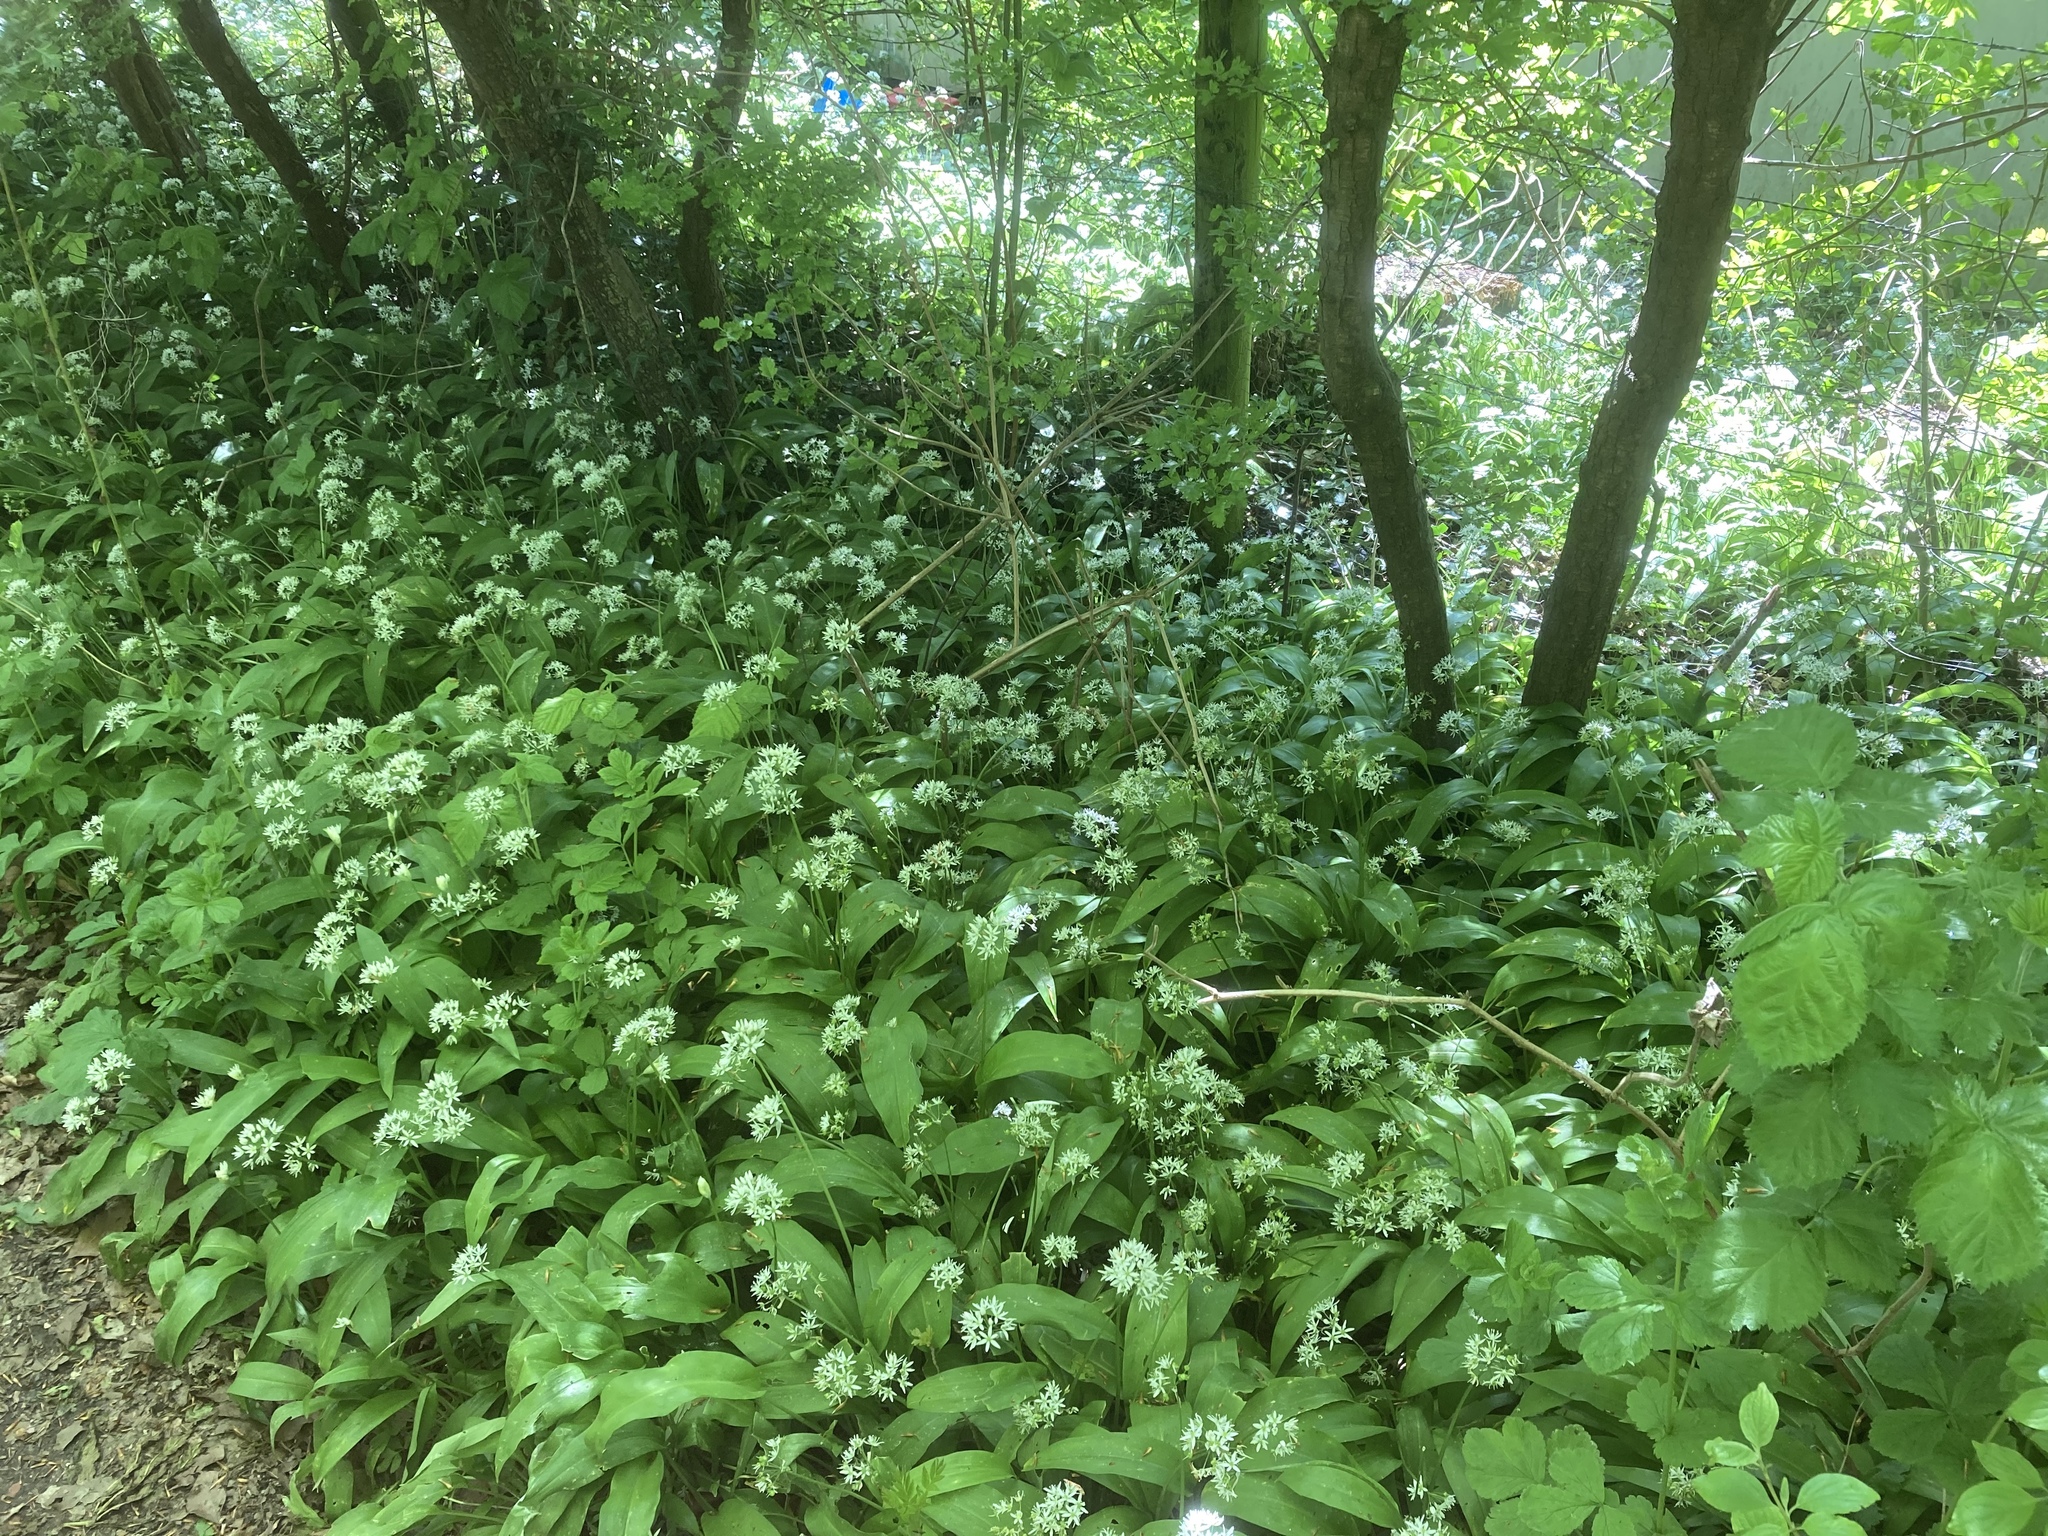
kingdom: Plantae
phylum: Tracheophyta
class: Liliopsida
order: Asparagales
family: Amaryllidaceae
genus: Allium
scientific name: Allium ursinum
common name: Ramsons
